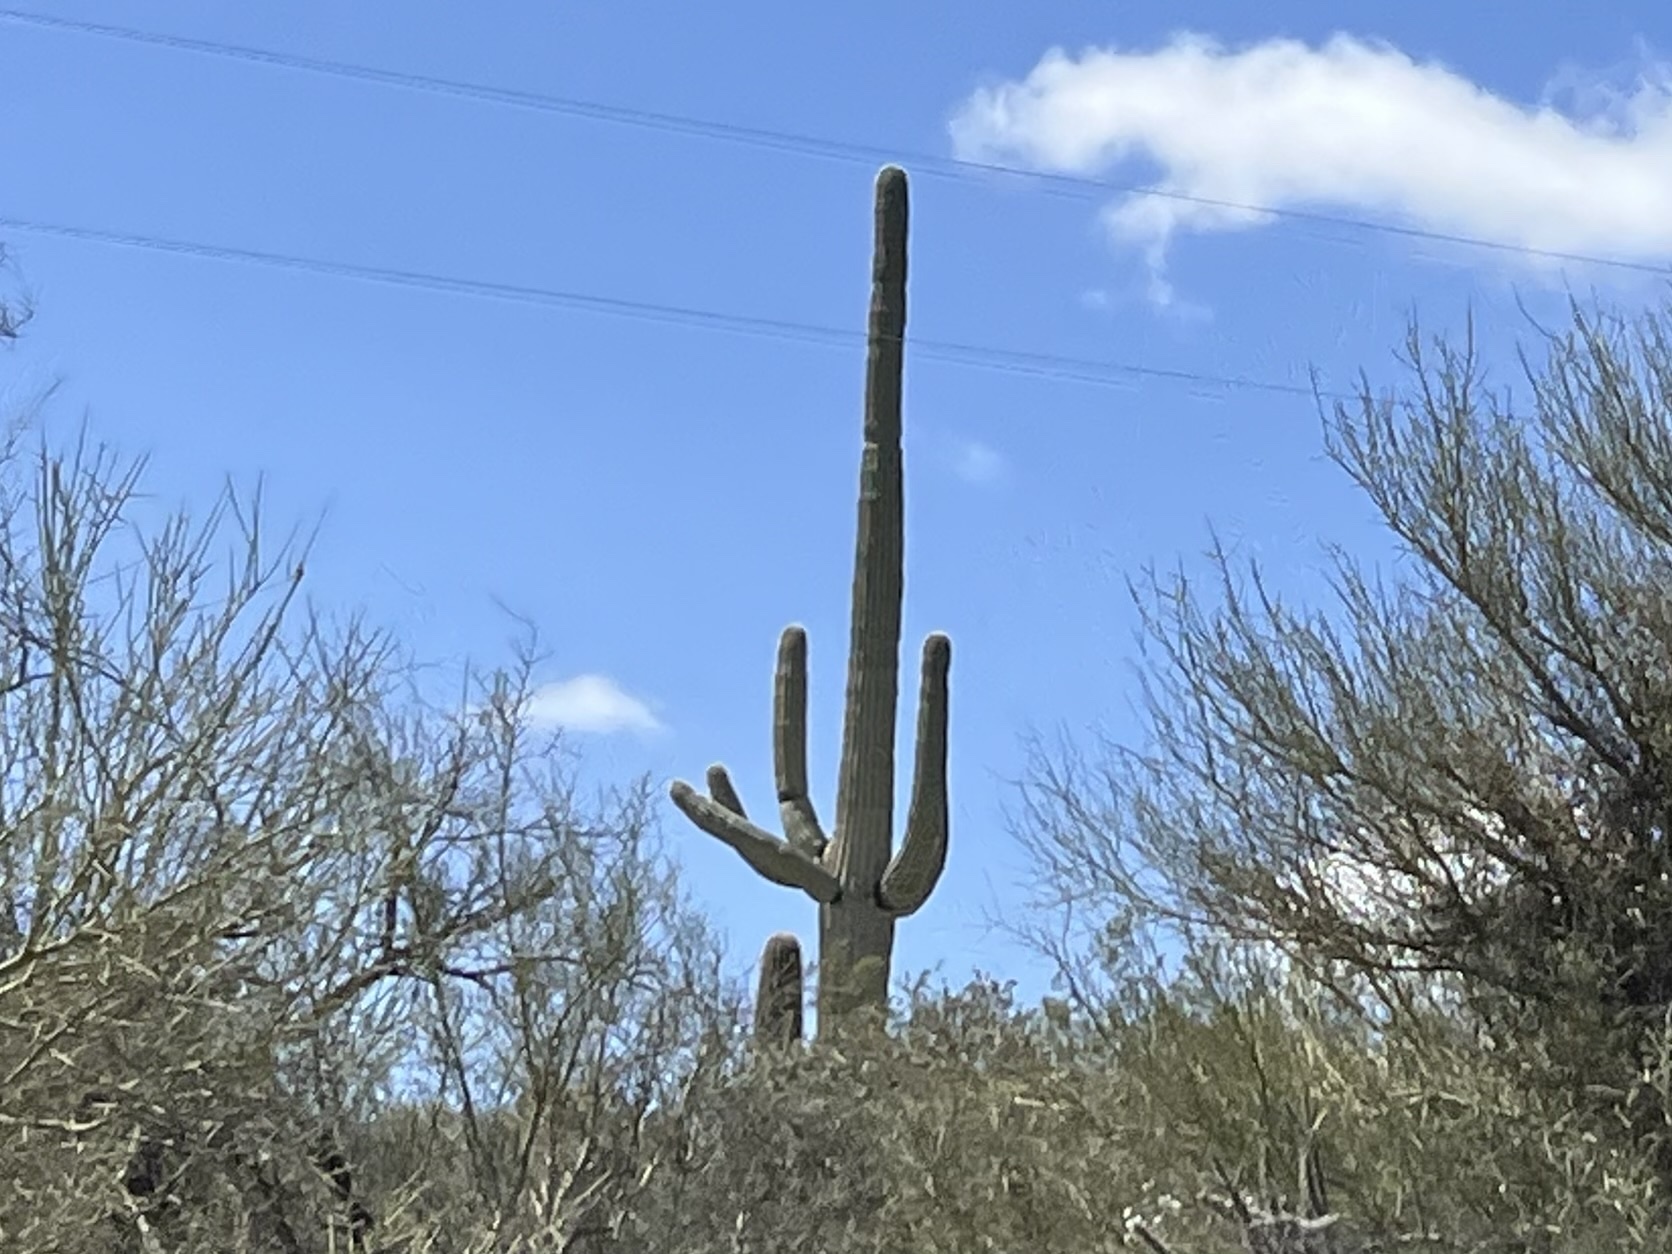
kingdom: Plantae
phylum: Tracheophyta
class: Magnoliopsida
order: Caryophyllales
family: Cactaceae
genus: Carnegiea
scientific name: Carnegiea gigantea
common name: Saguaro
